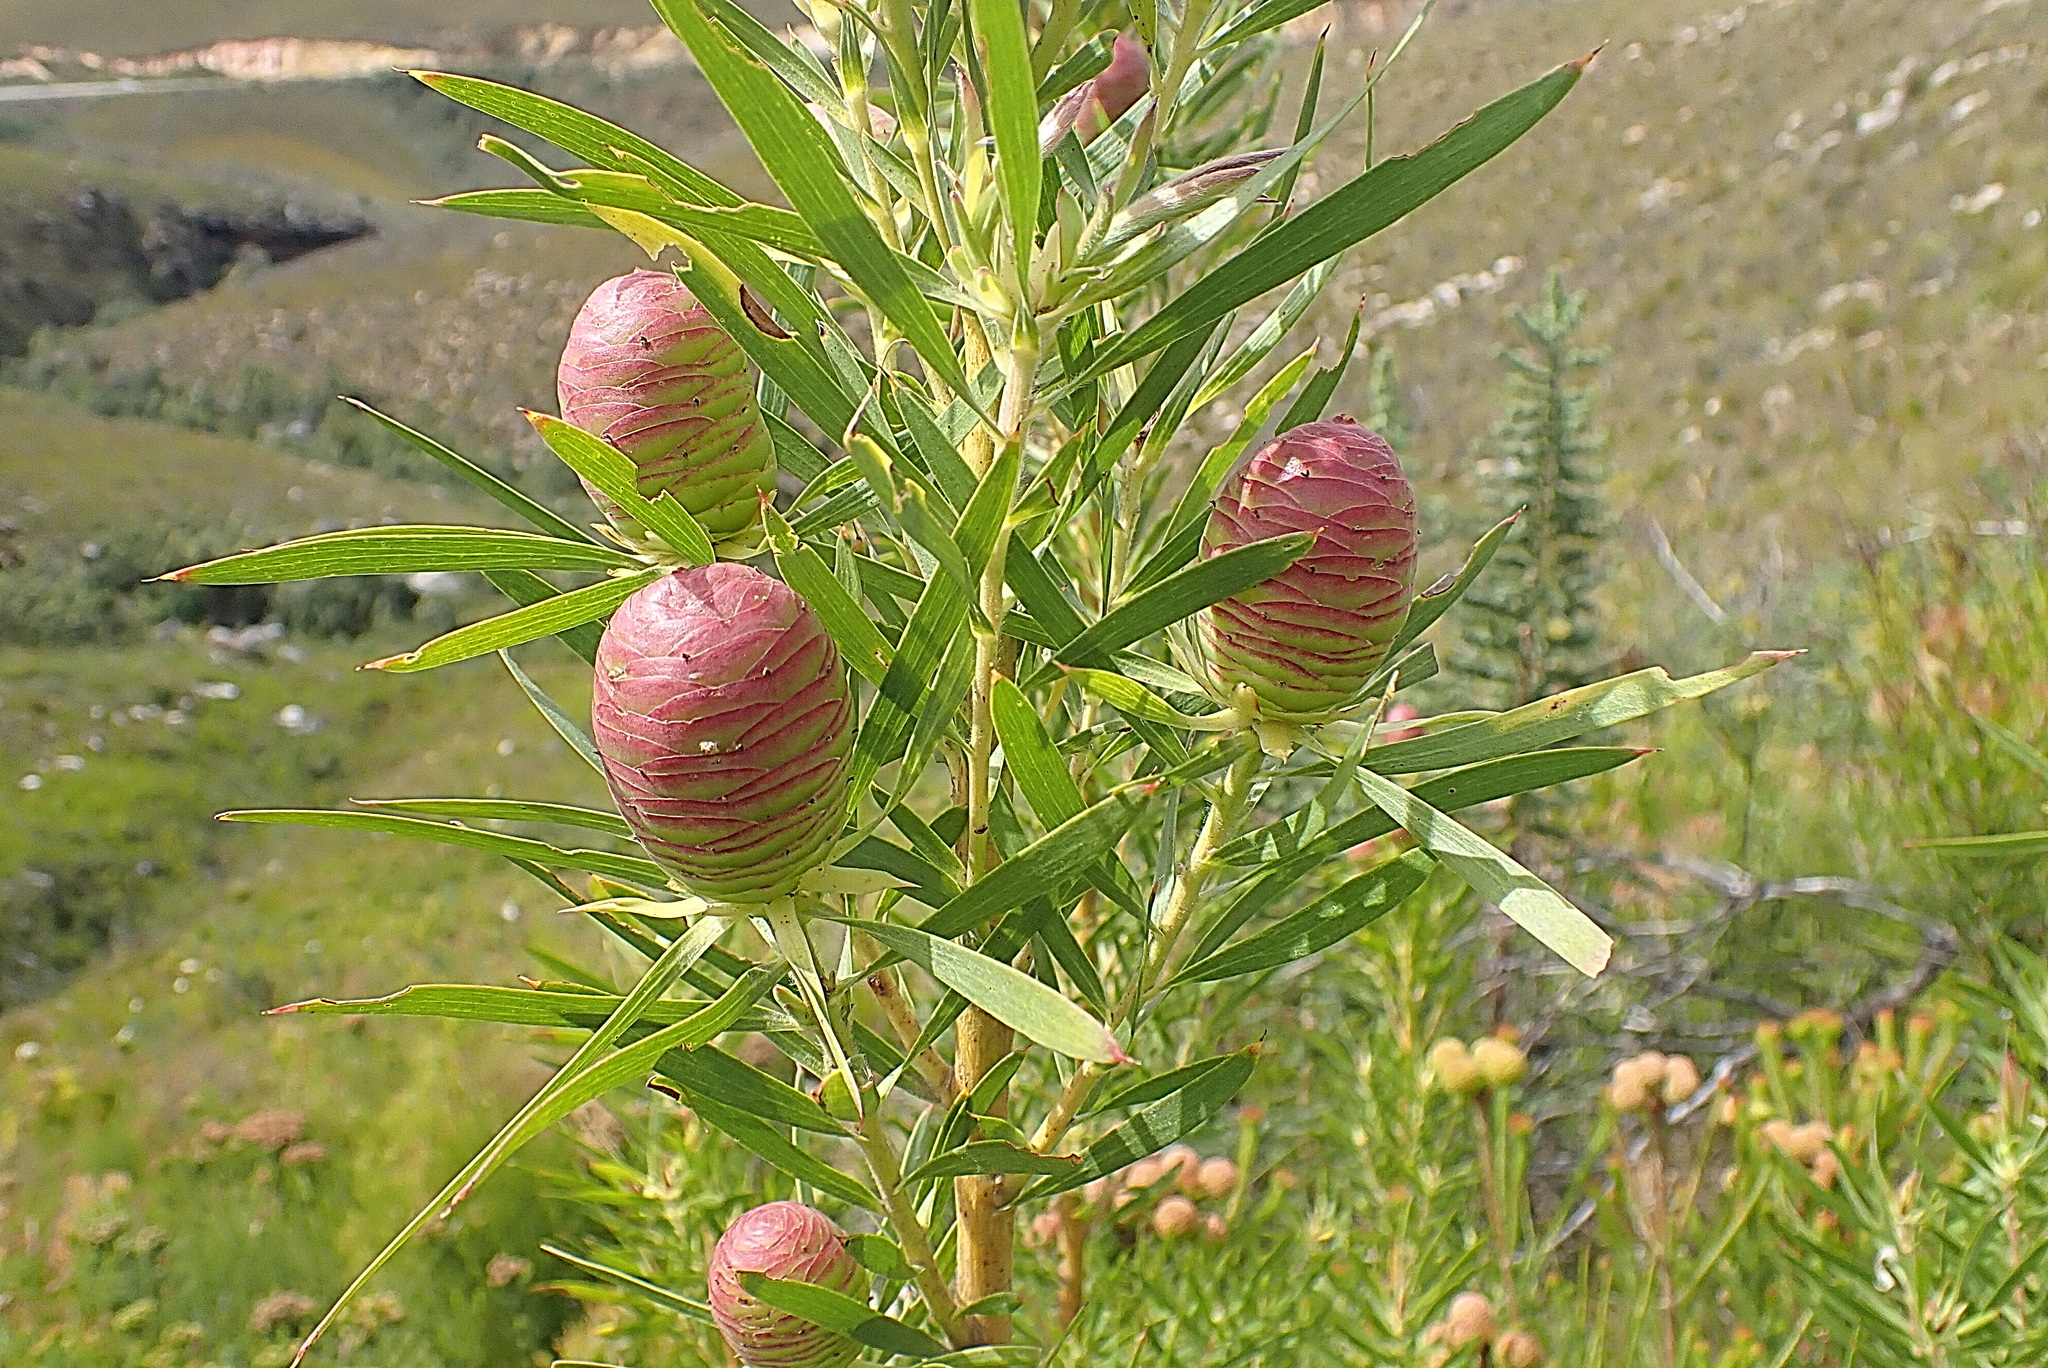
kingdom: Plantae
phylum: Tracheophyta
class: Magnoliopsida
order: Proteales
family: Proteaceae
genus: Leucadendron
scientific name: Leucadendron salicifolium
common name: Common stream conebush
